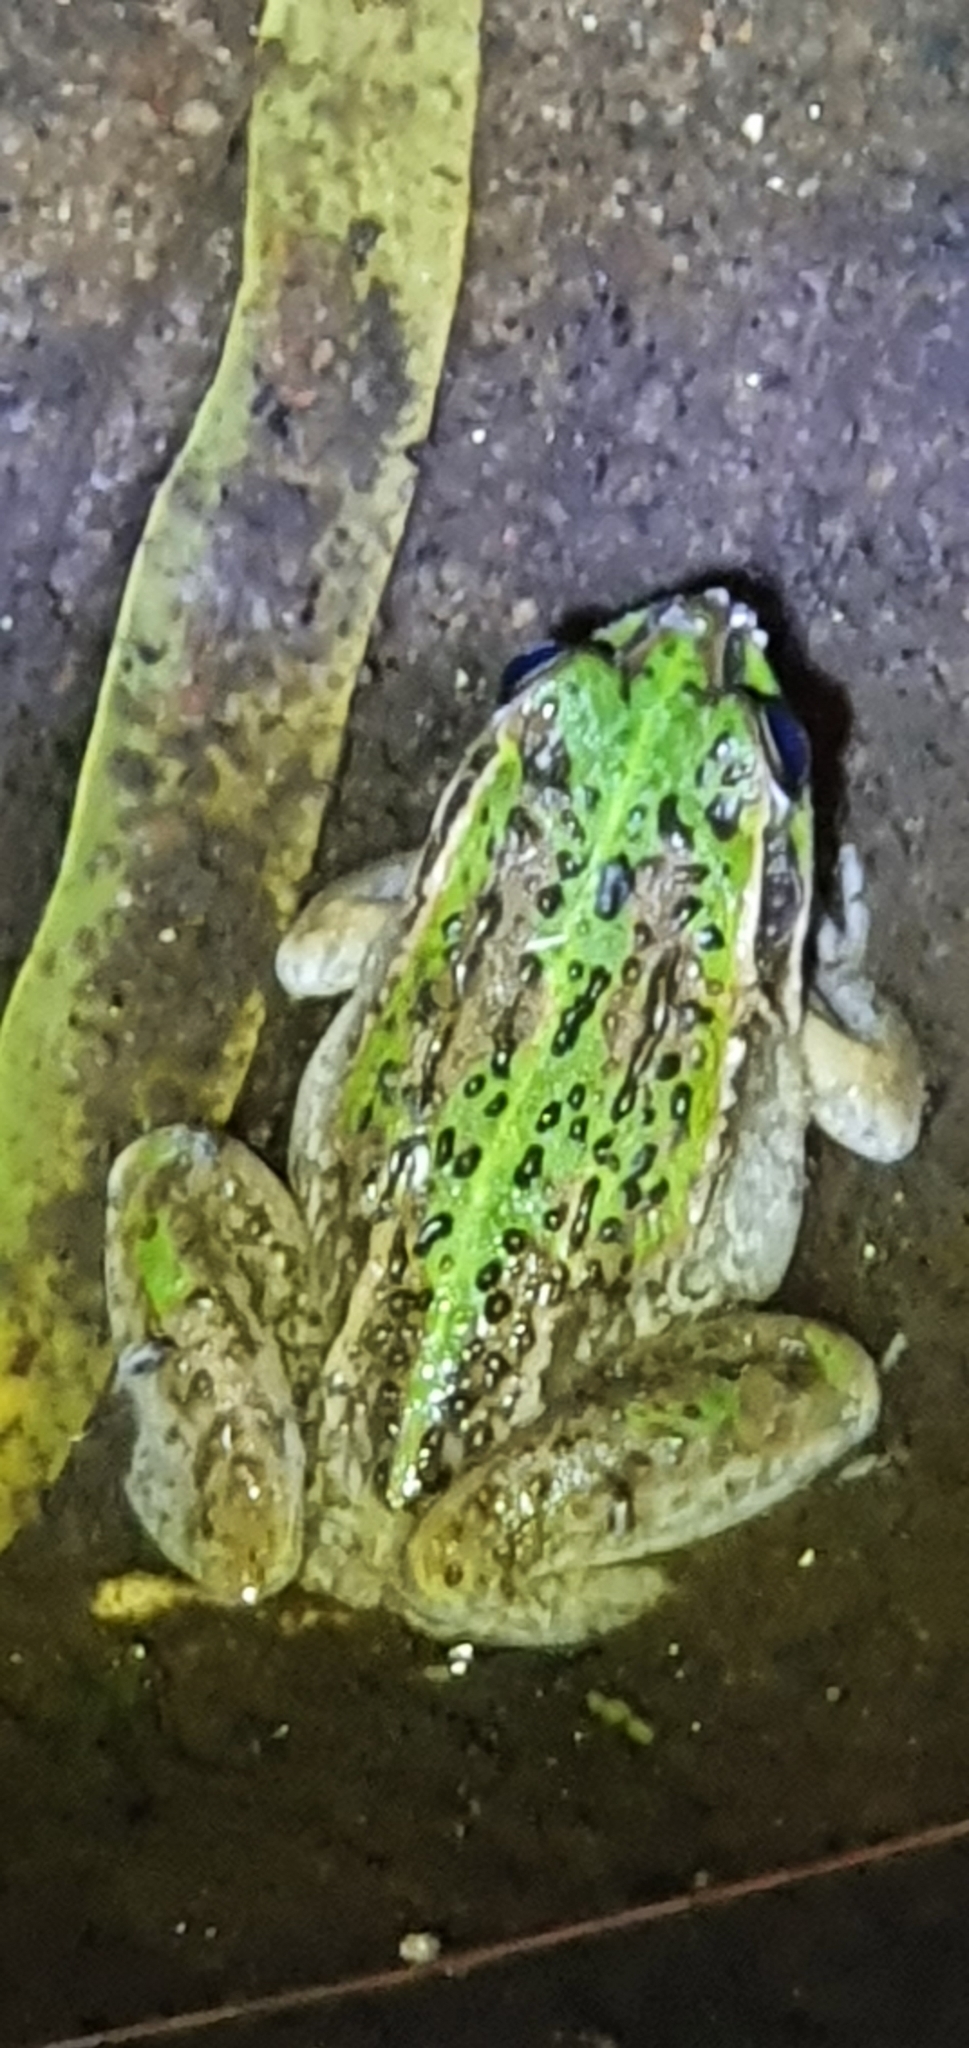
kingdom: Animalia
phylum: Chordata
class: Amphibia
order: Anura
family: Pelodryadidae
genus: Ranoidea
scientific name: Ranoidea alboguttata
